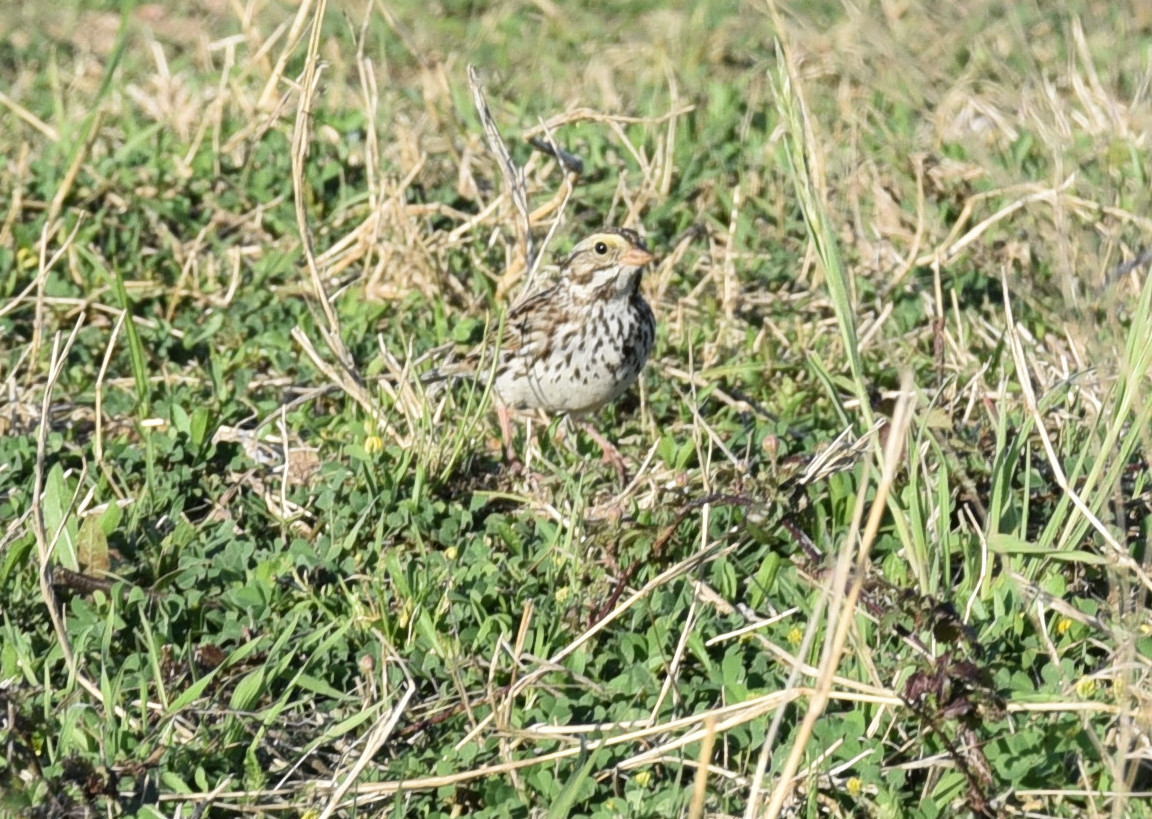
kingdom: Animalia
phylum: Chordata
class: Aves
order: Passeriformes
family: Passerellidae
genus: Passerculus
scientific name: Passerculus sandwichensis
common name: Savannah sparrow
